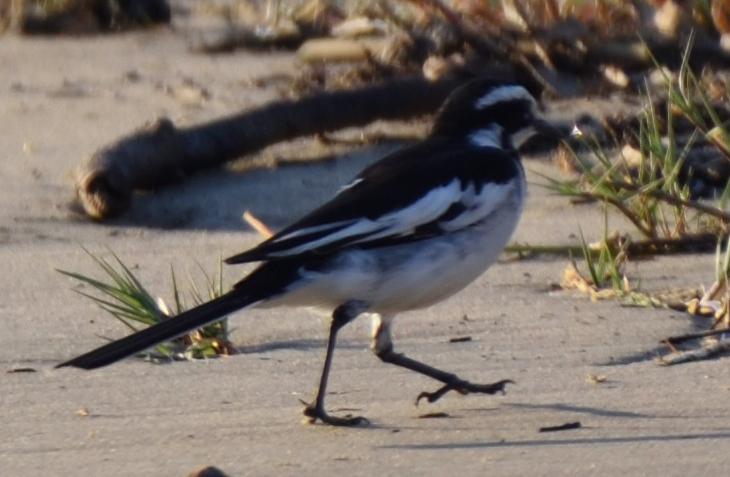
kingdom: Animalia
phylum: Chordata
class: Aves
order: Passeriformes
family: Motacillidae
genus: Motacilla
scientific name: Motacilla aguimp
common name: African pied wagtail
